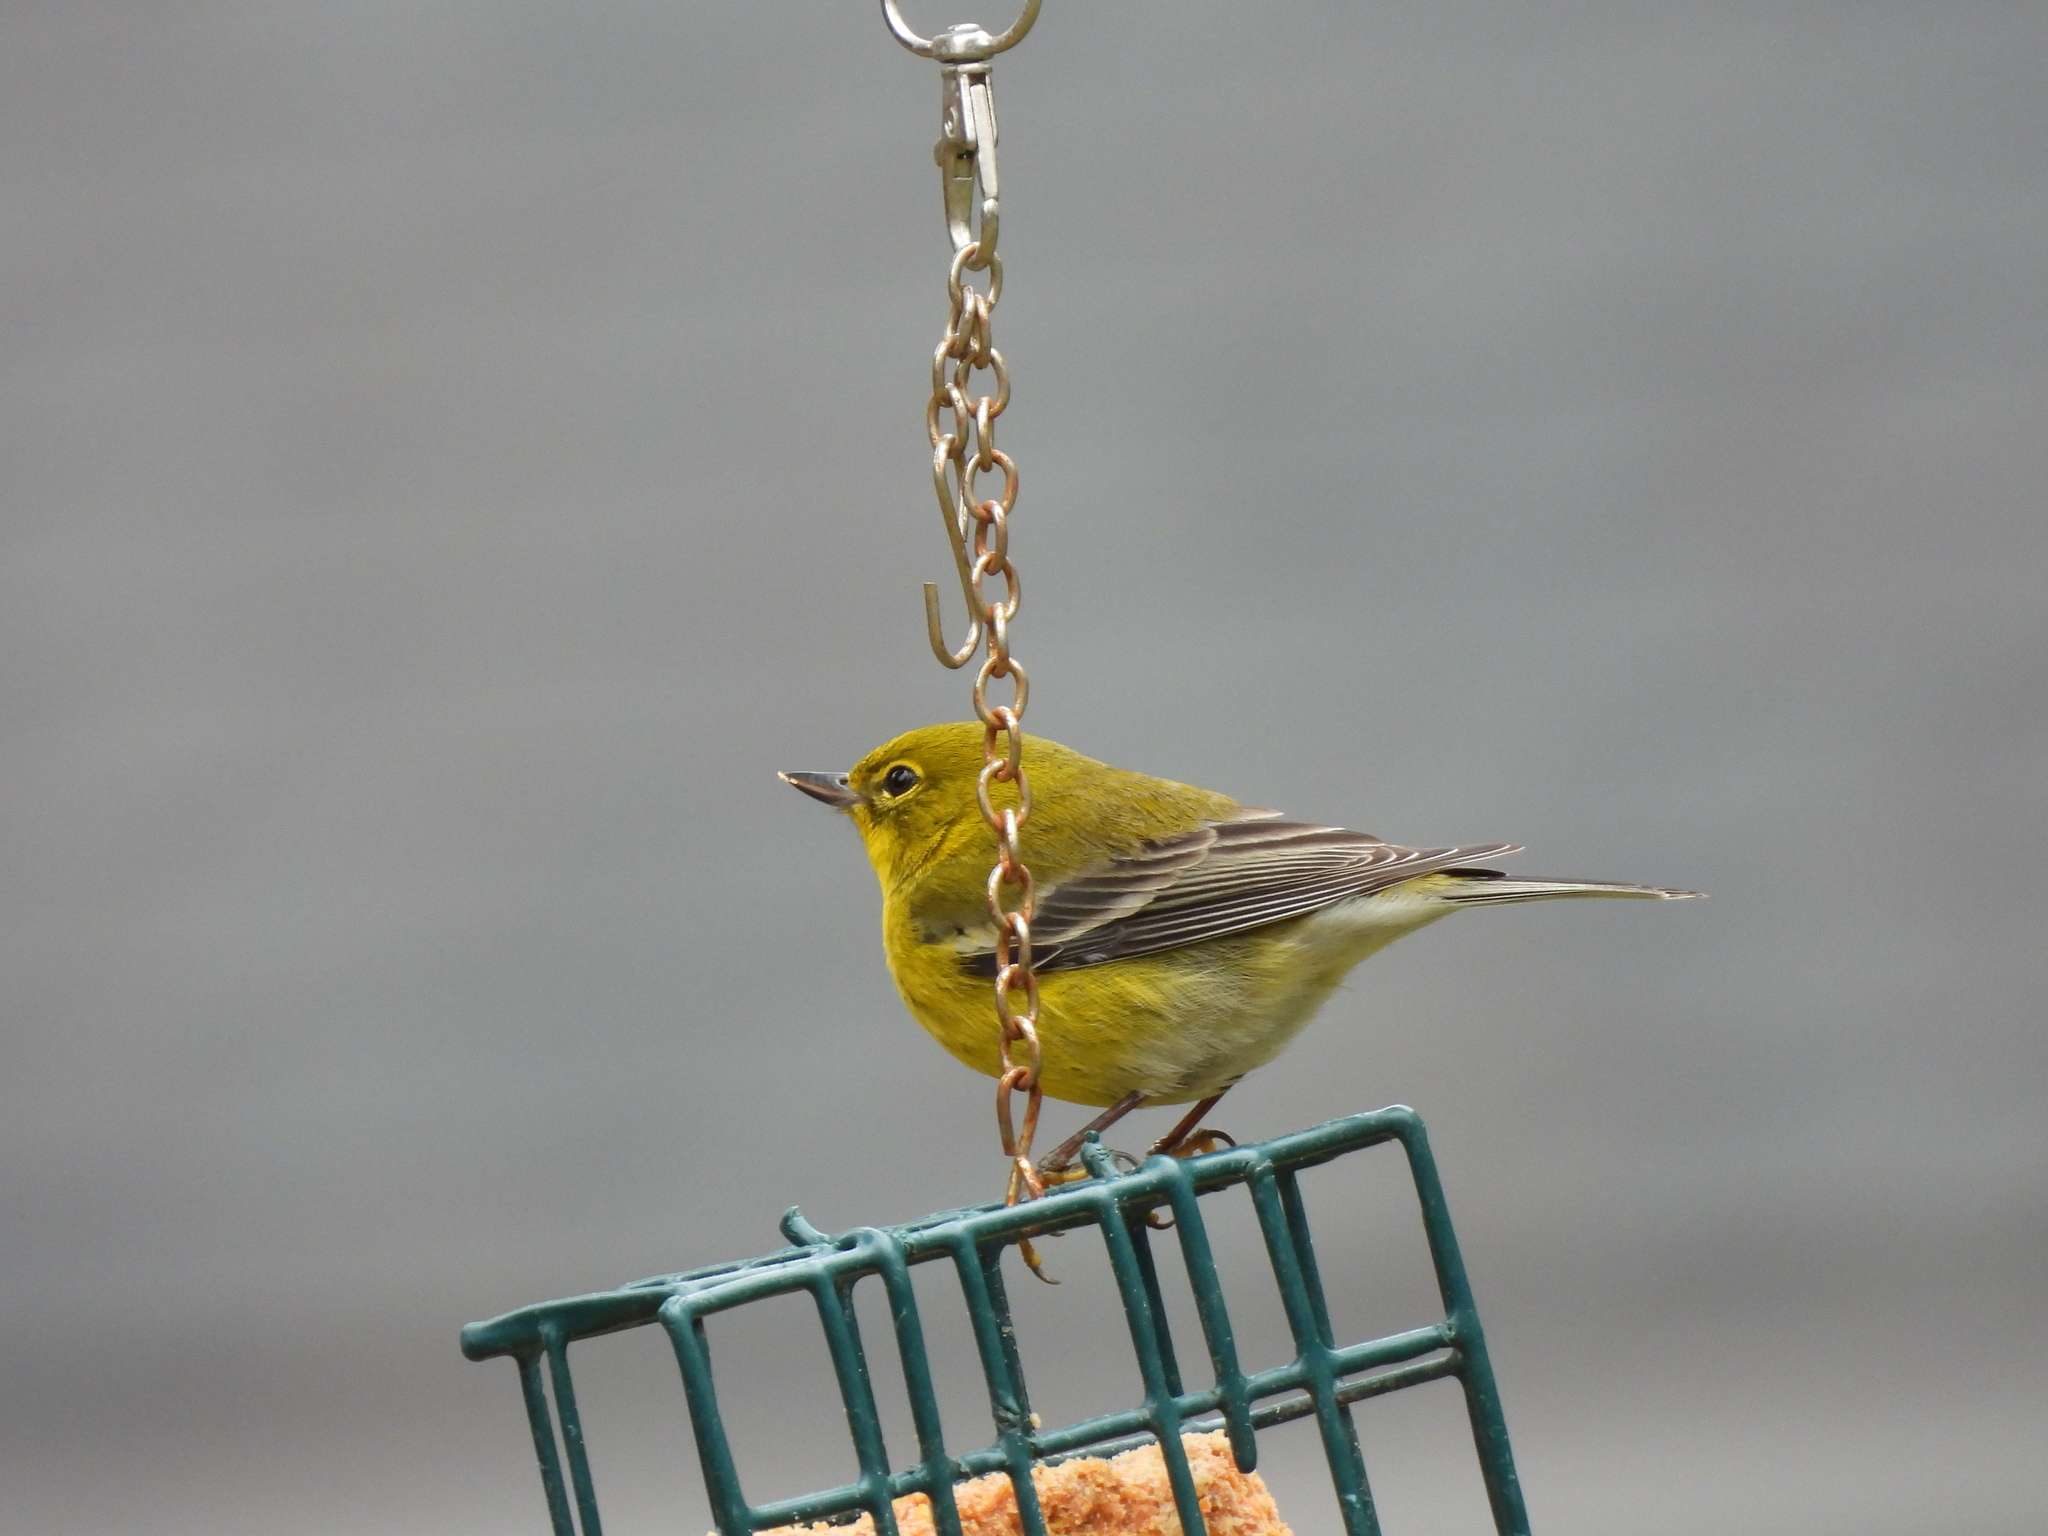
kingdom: Animalia
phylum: Chordata
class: Aves
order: Passeriformes
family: Parulidae
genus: Setophaga
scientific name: Setophaga pinus
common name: Pine warbler
